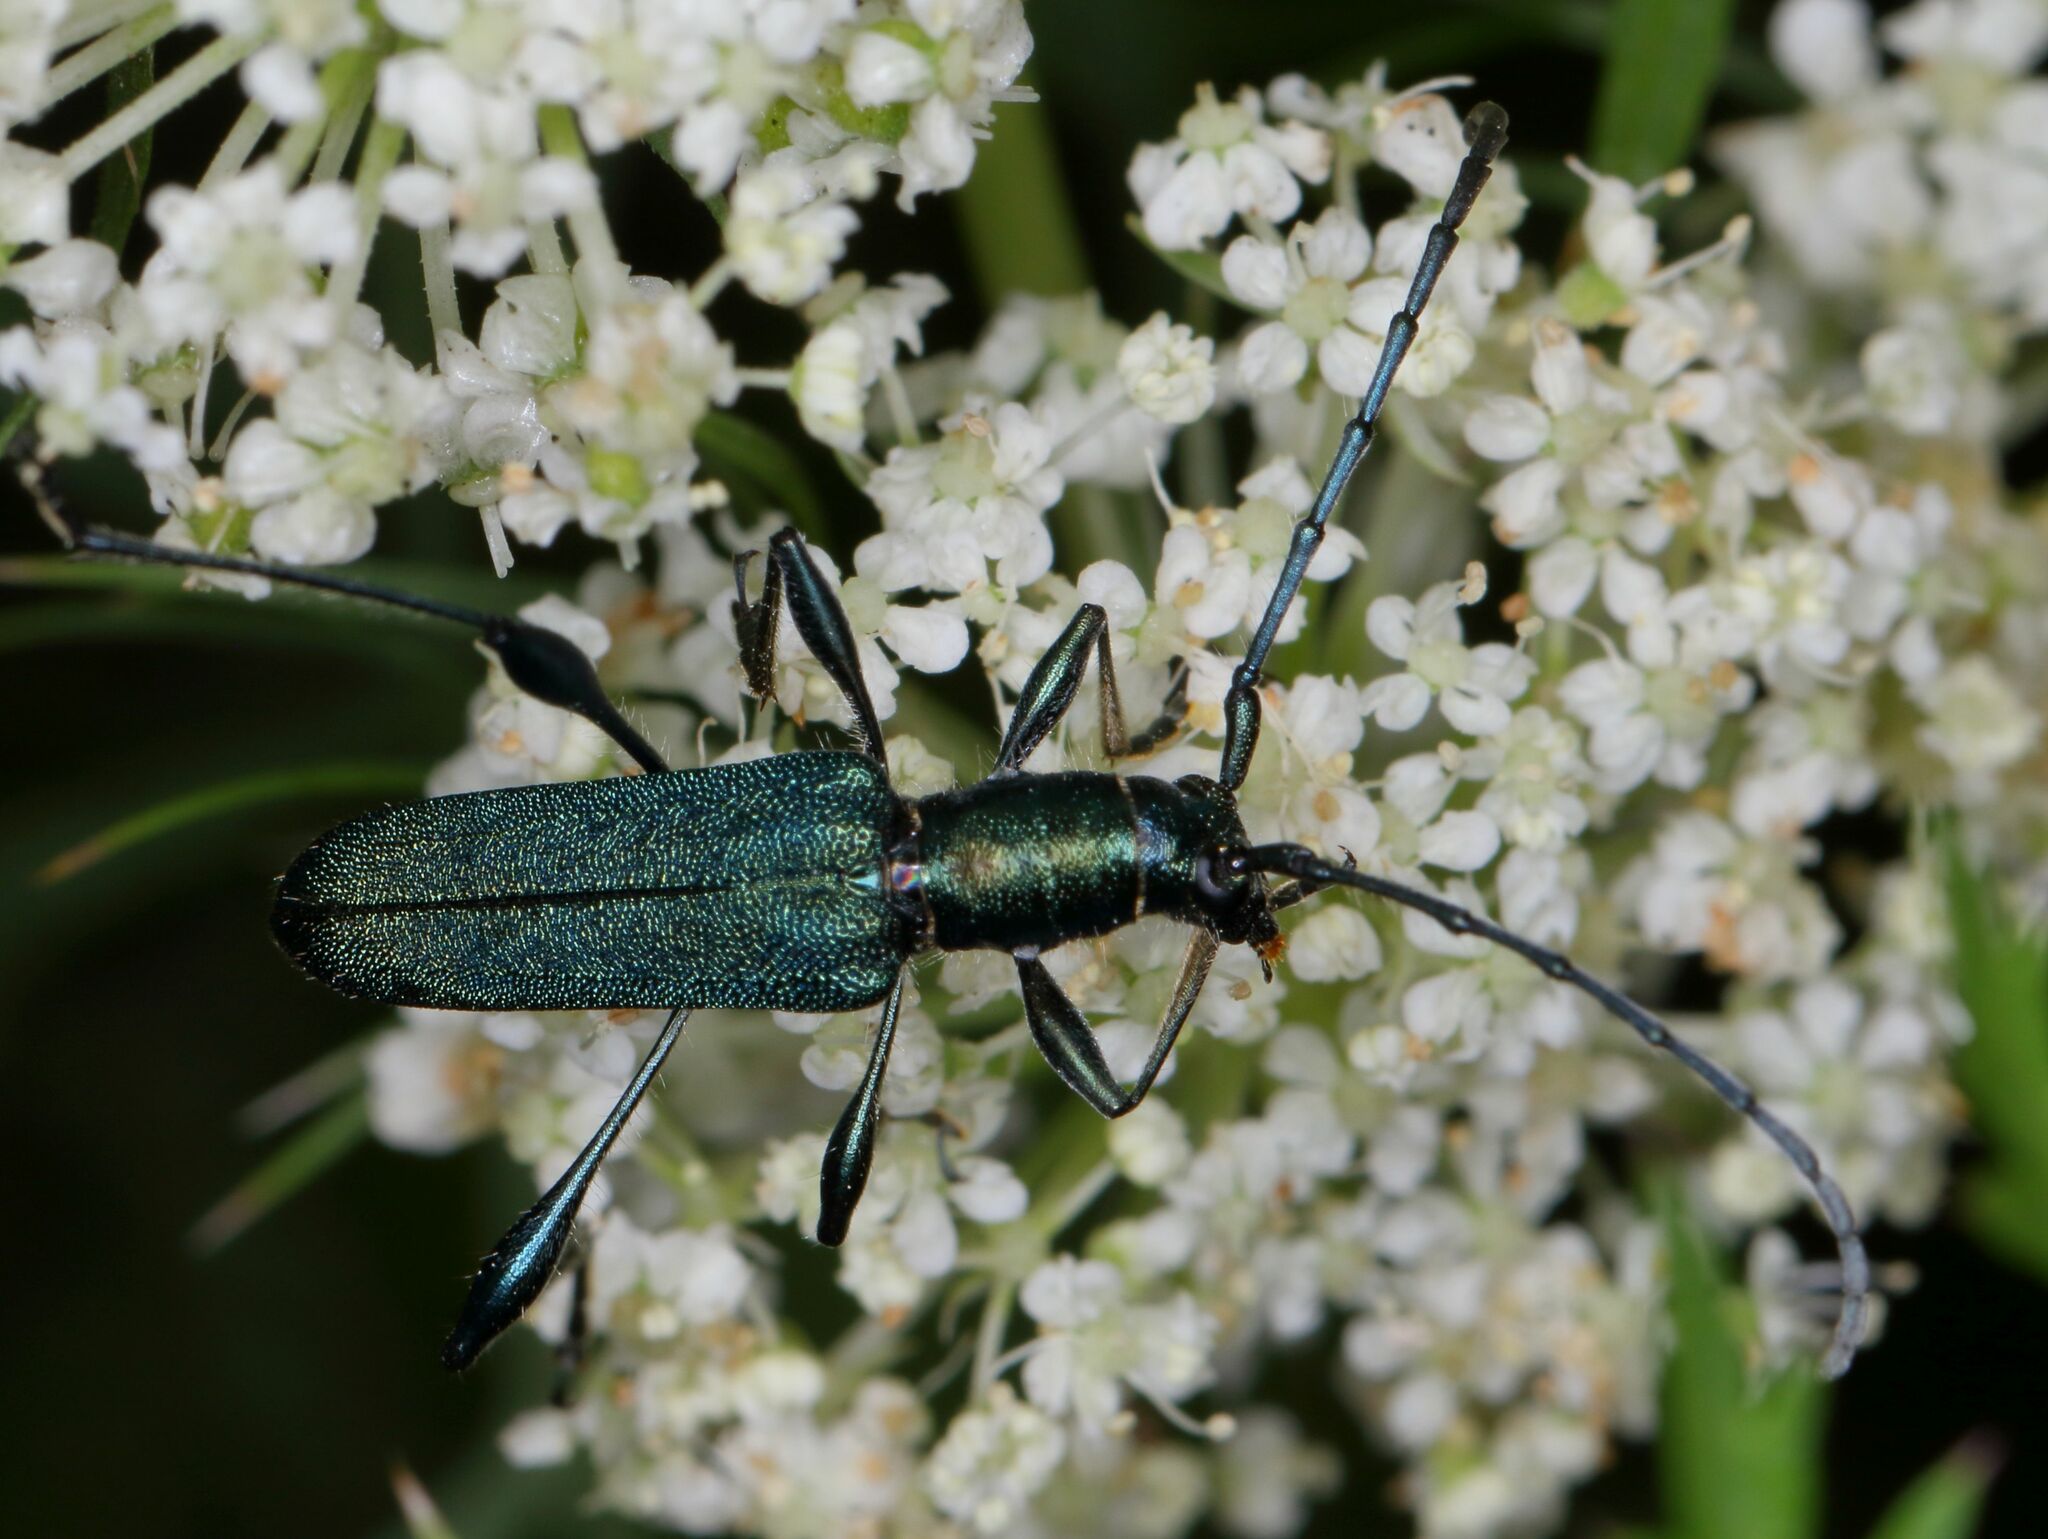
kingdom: Animalia
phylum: Arthropoda
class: Insecta
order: Coleoptera
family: Cerambycidae
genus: Closteromerus
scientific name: Closteromerus sexpunctatus
